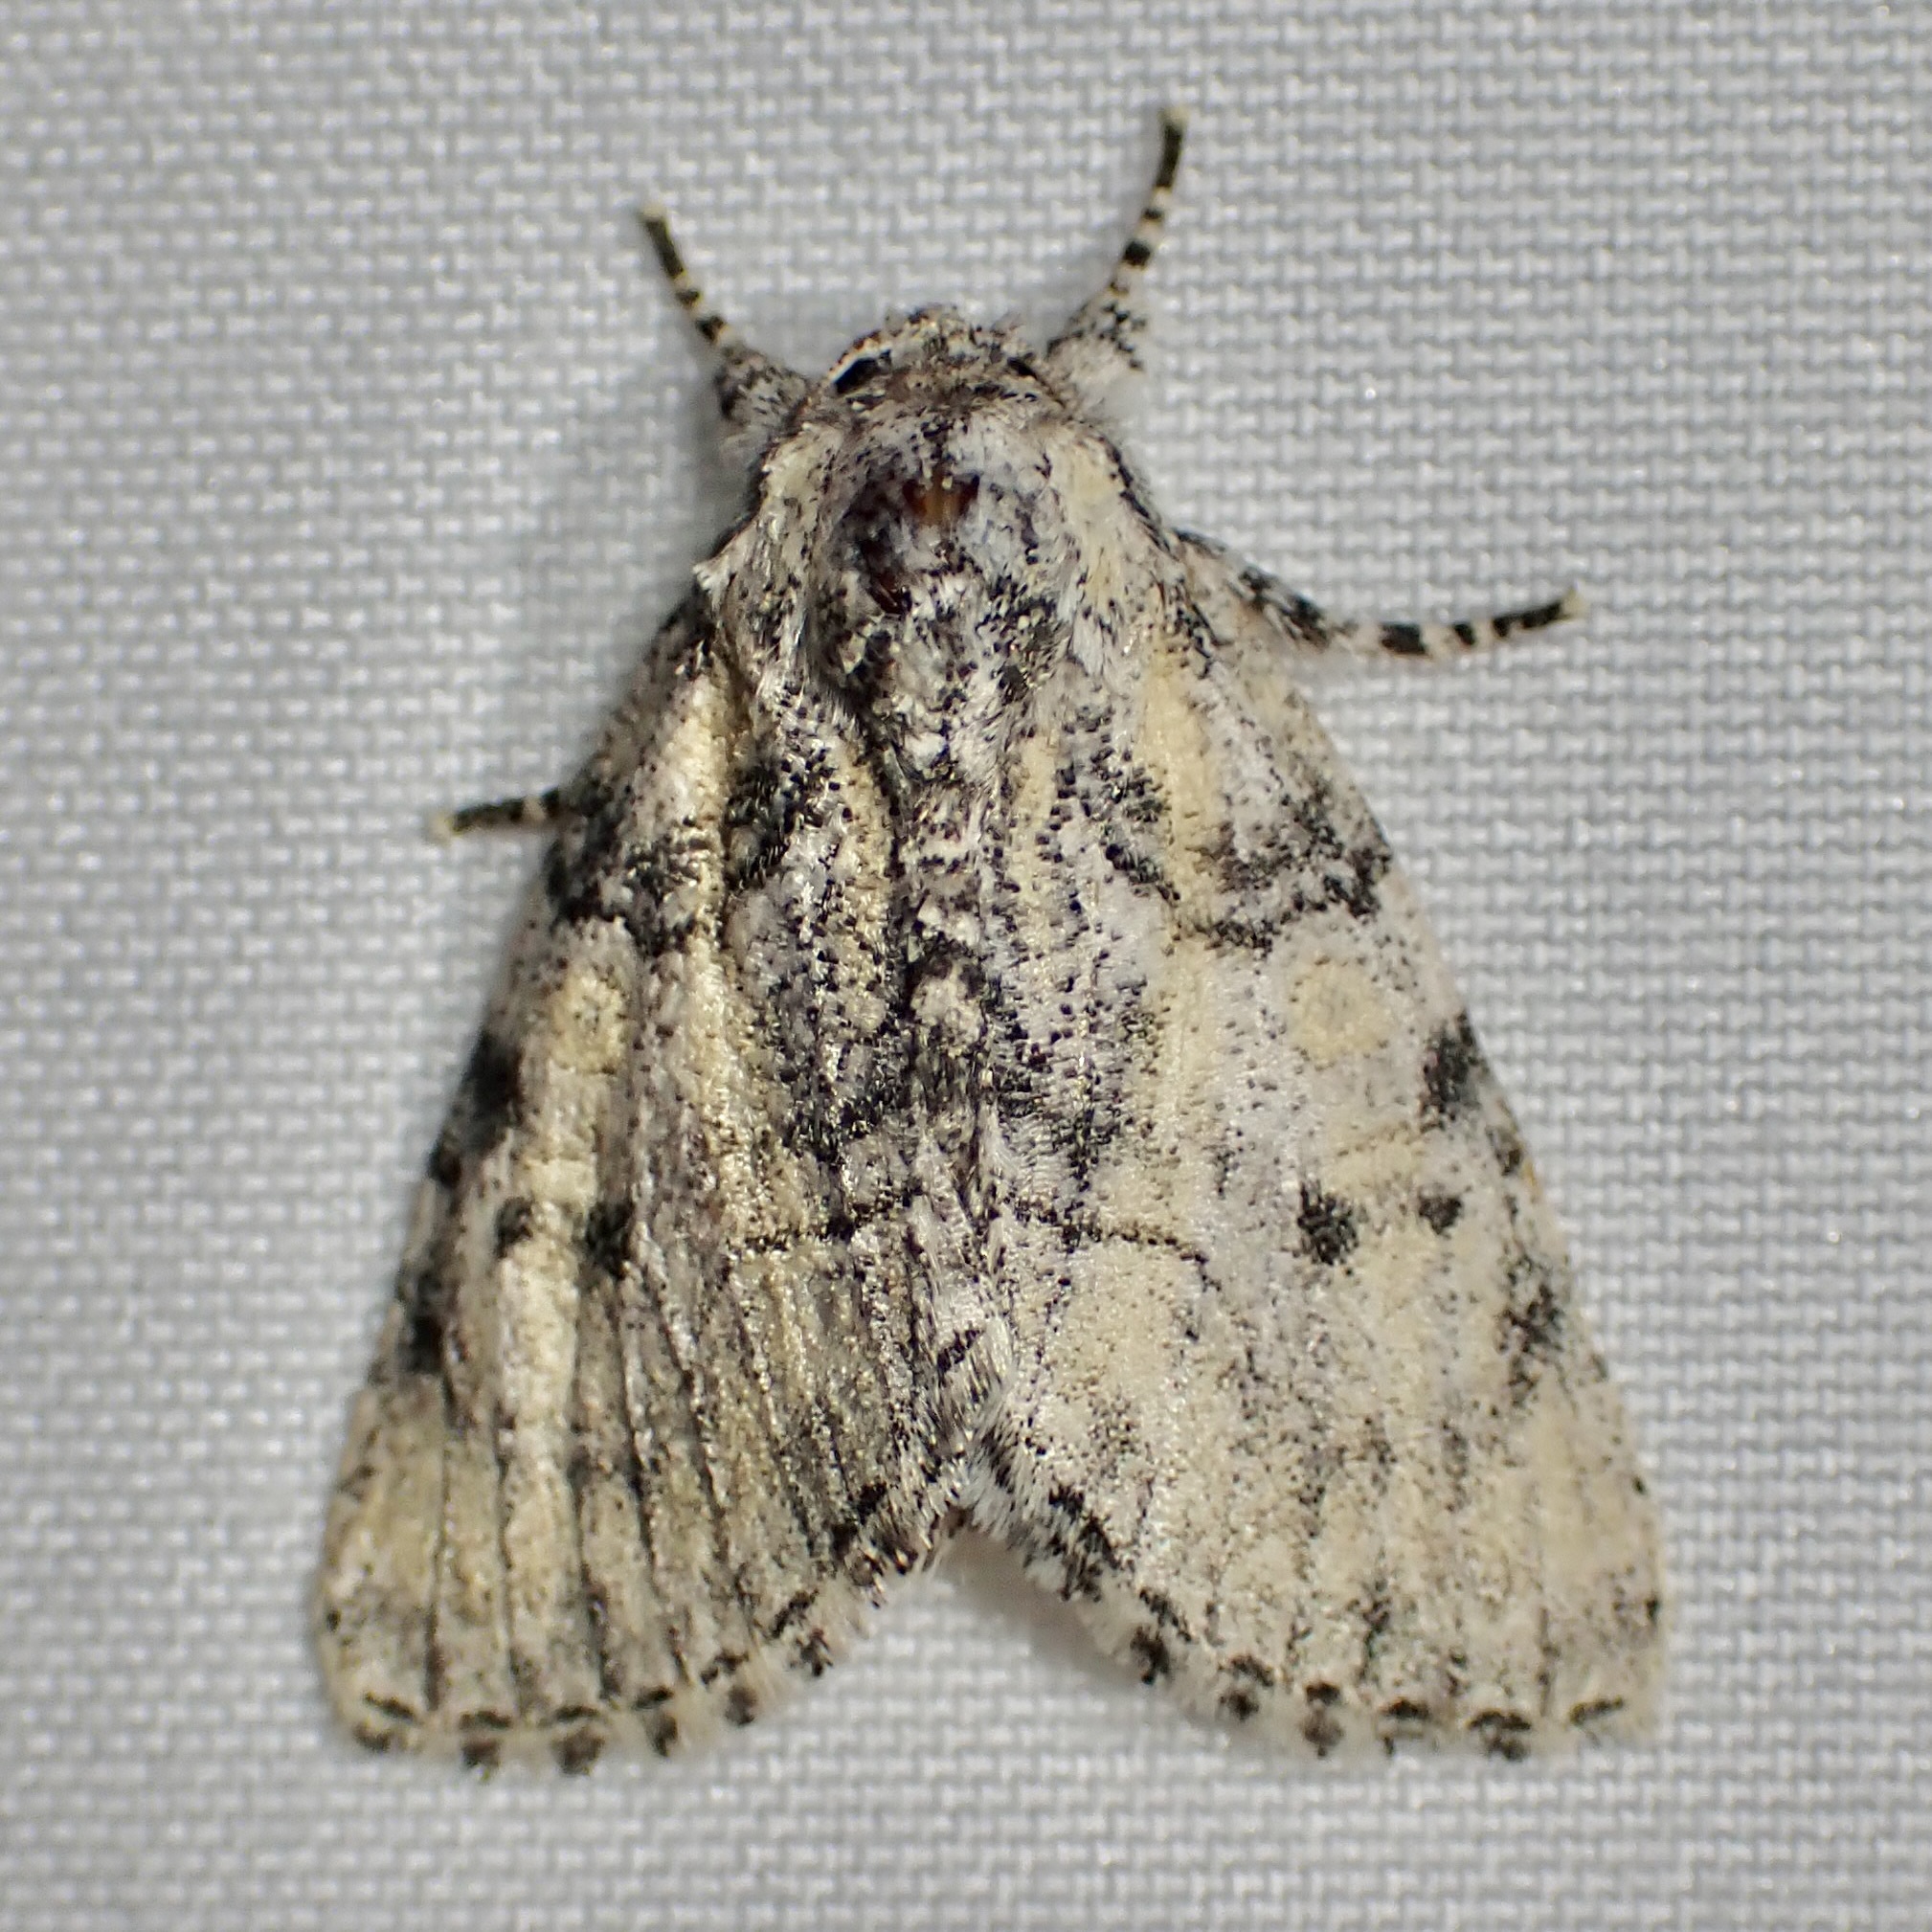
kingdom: Animalia
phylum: Arthropoda
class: Insecta
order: Lepidoptera
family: Noctuidae
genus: Raphia
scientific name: Raphia frater
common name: Brother
